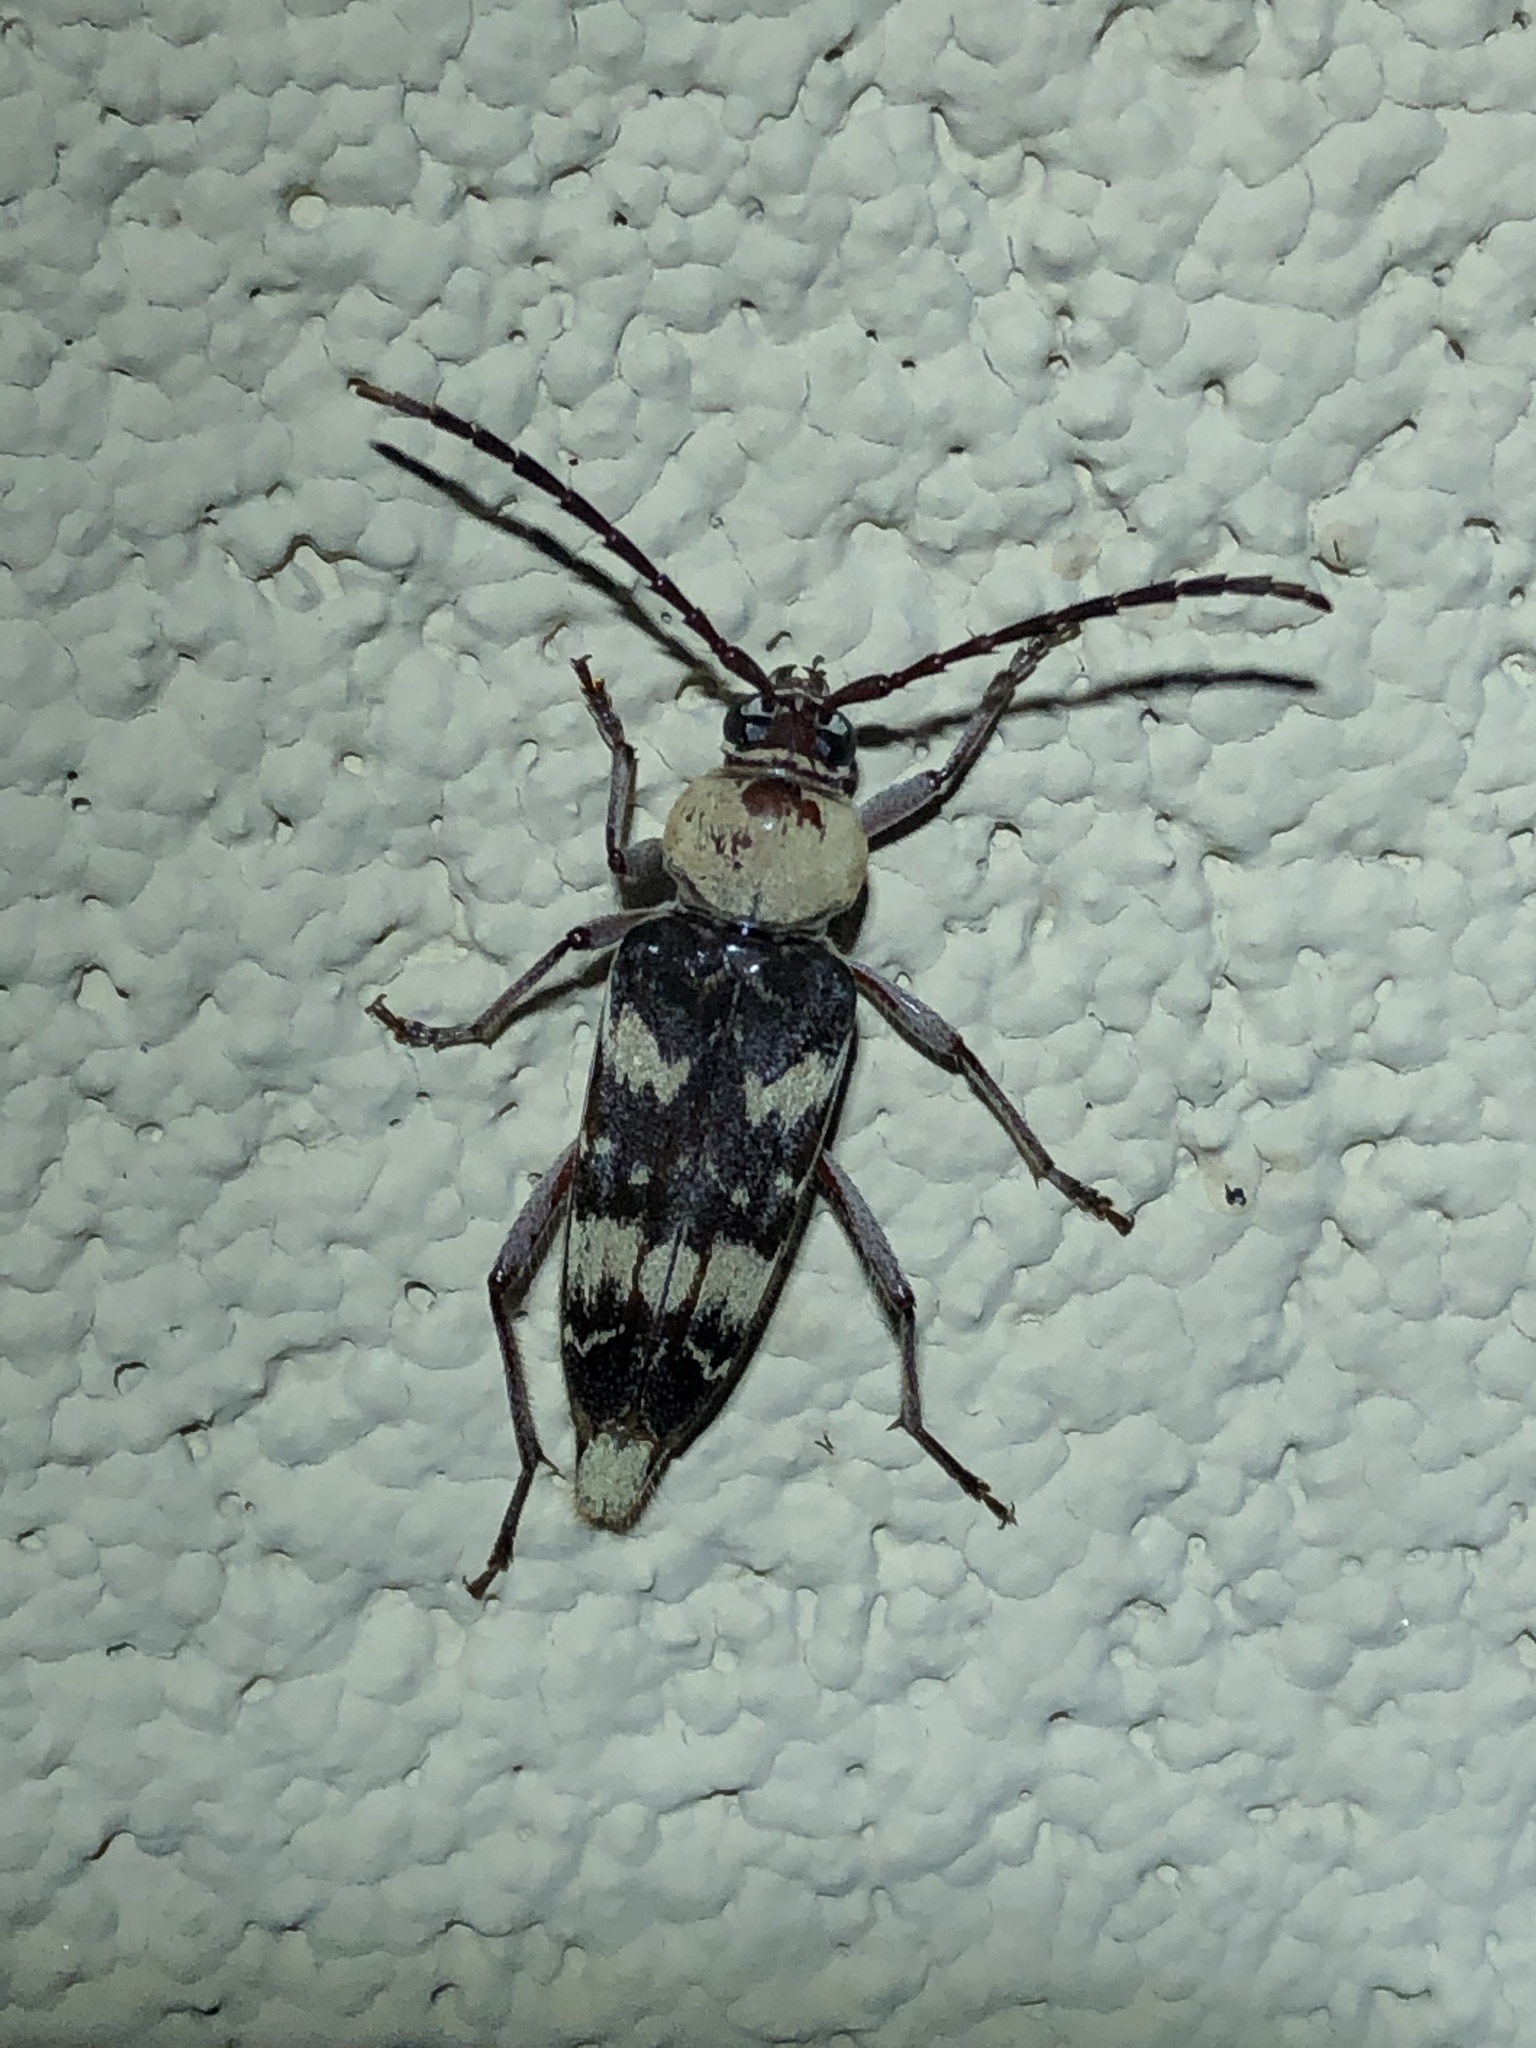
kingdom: Animalia
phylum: Arthropoda
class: Insecta
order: Coleoptera
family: Cerambycidae
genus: Megacyllene
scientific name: Megacyllene antennata
